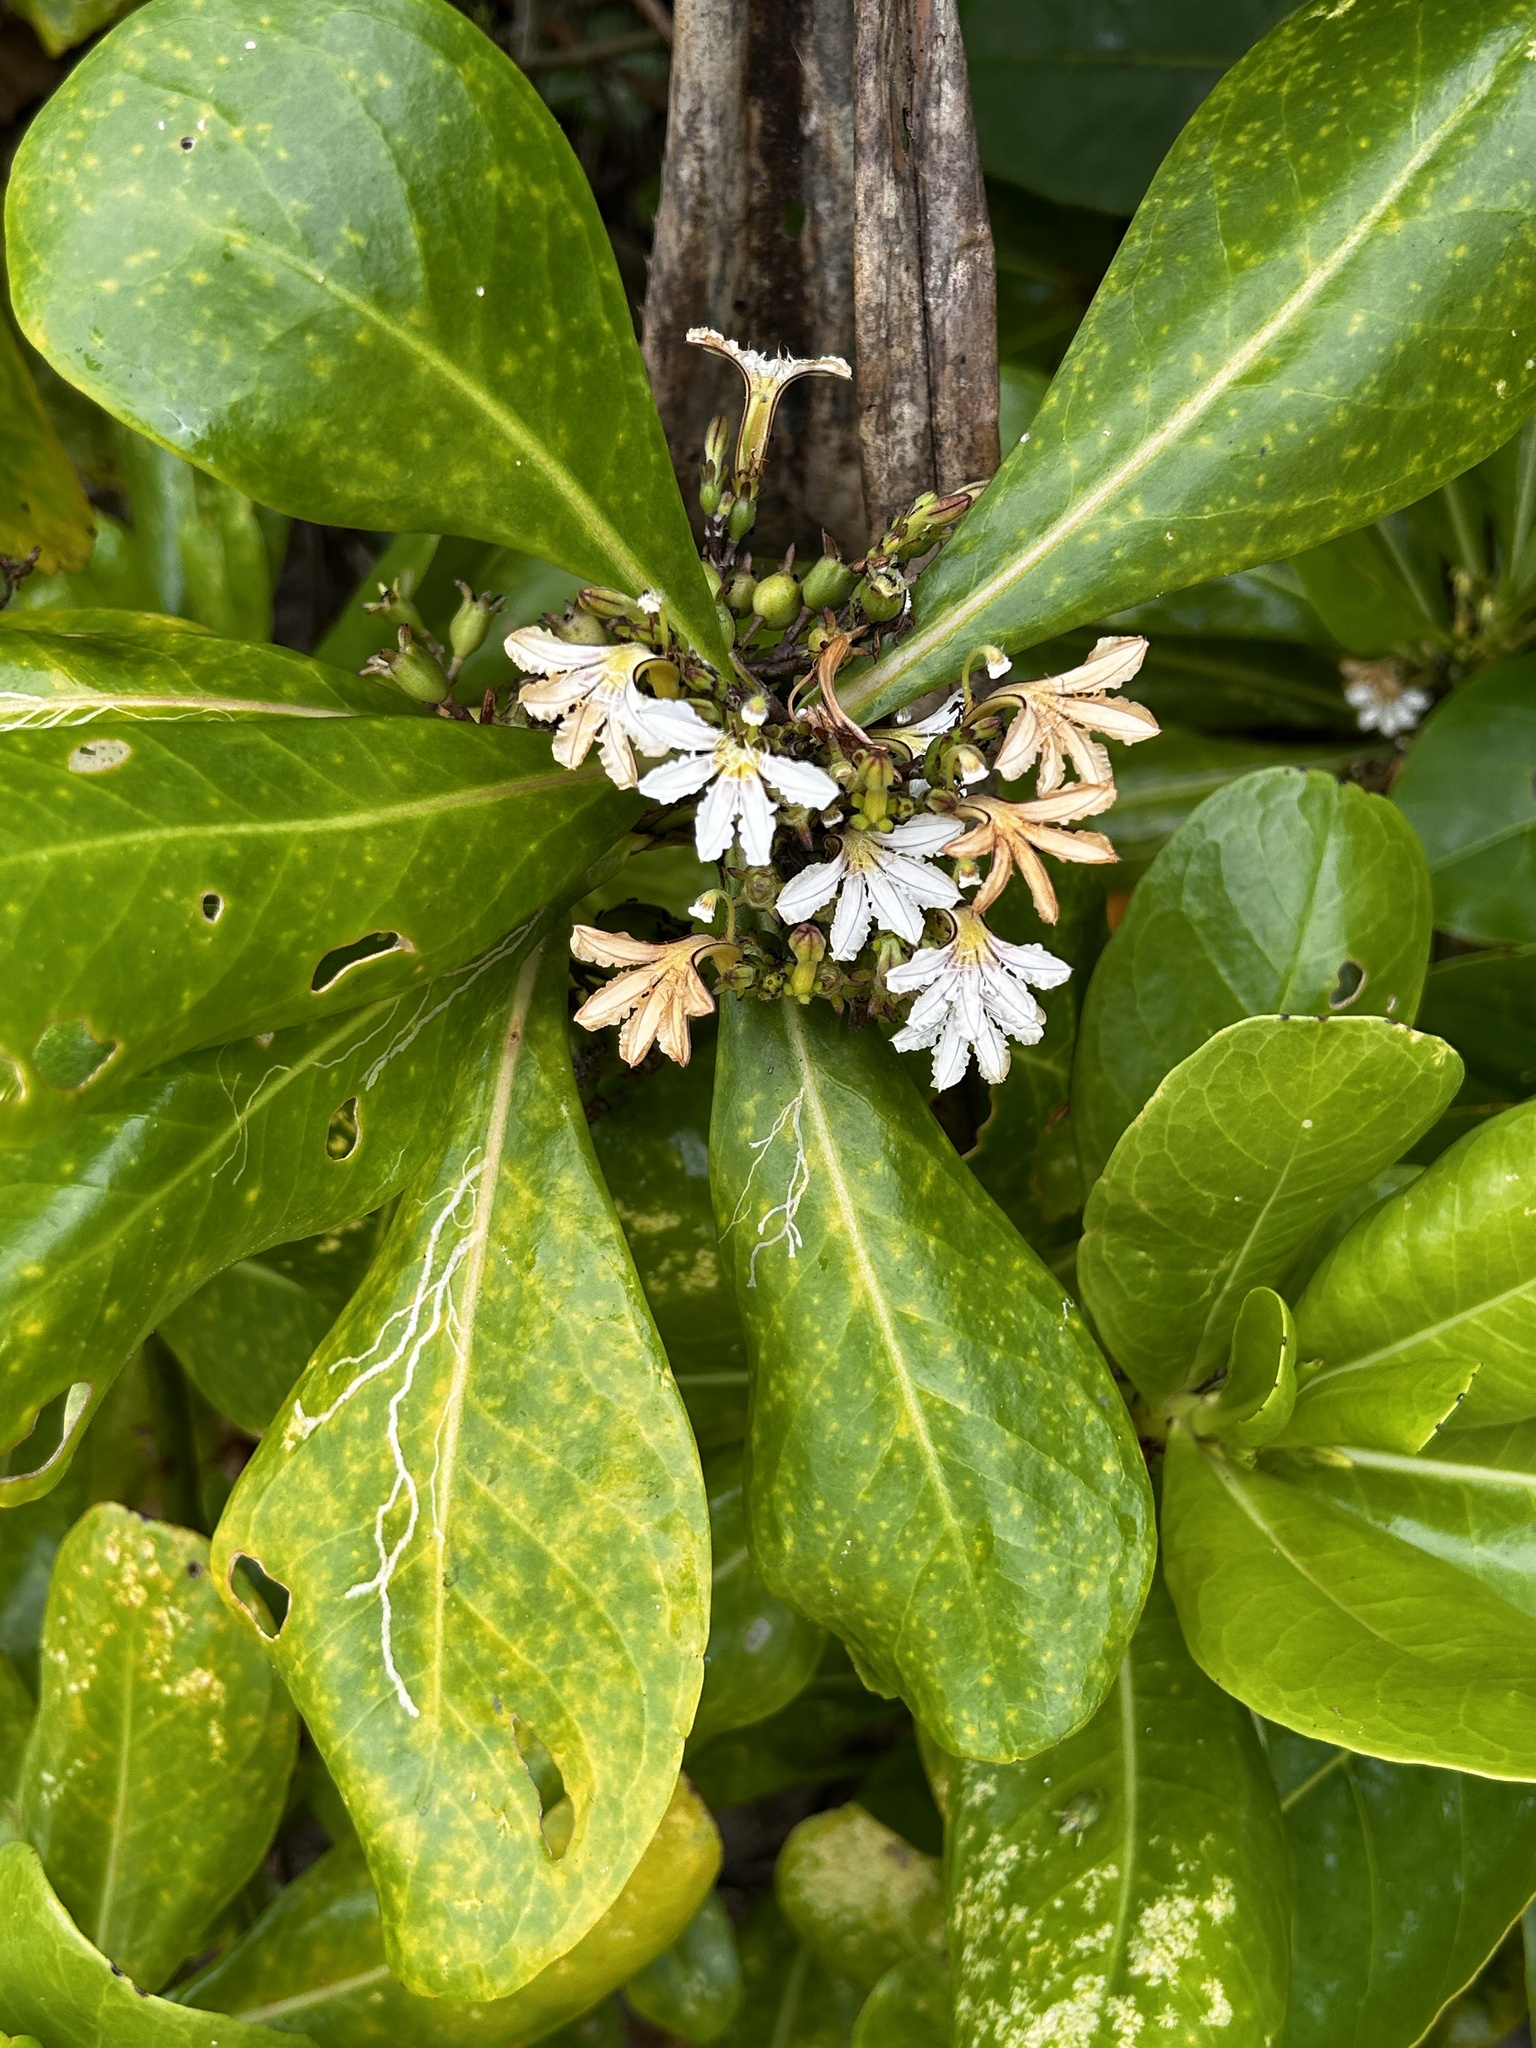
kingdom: Plantae
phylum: Tracheophyta
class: Magnoliopsida
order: Asterales
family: Goodeniaceae
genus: Scaevola
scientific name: Scaevola taccada
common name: Sea lettucetree
